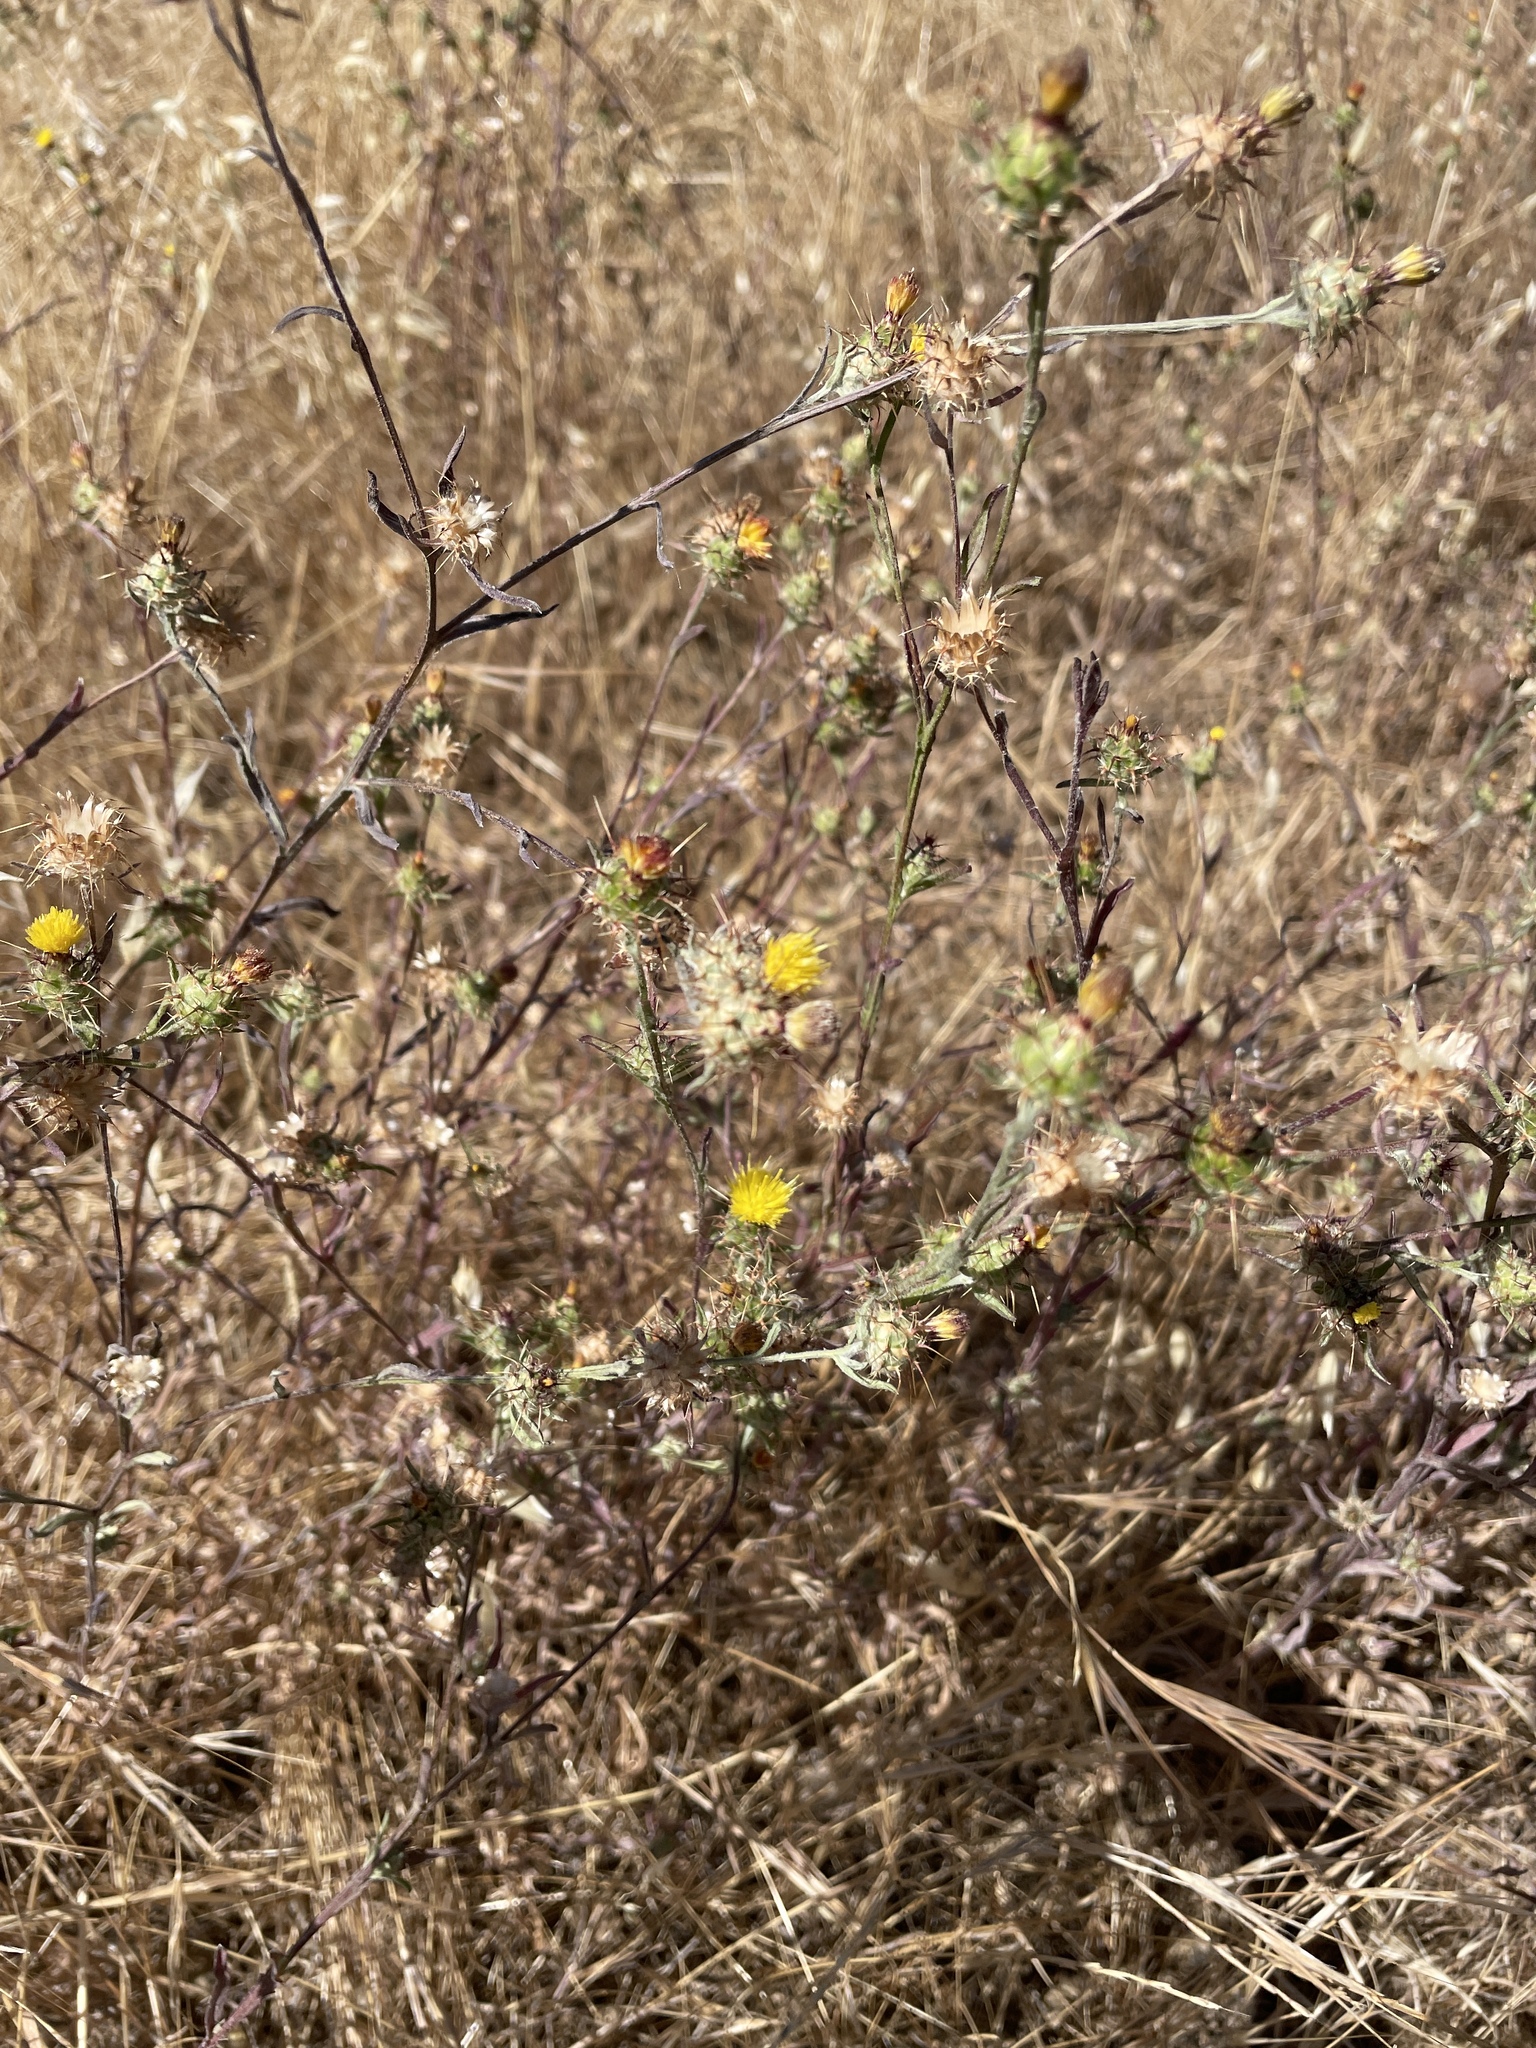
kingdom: Plantae
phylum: Tracheophyta
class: Magnoliopsida
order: Asterales
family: Asteraceae
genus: Centaurea
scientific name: Centaurea melitensis
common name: Maltese star-thistle
